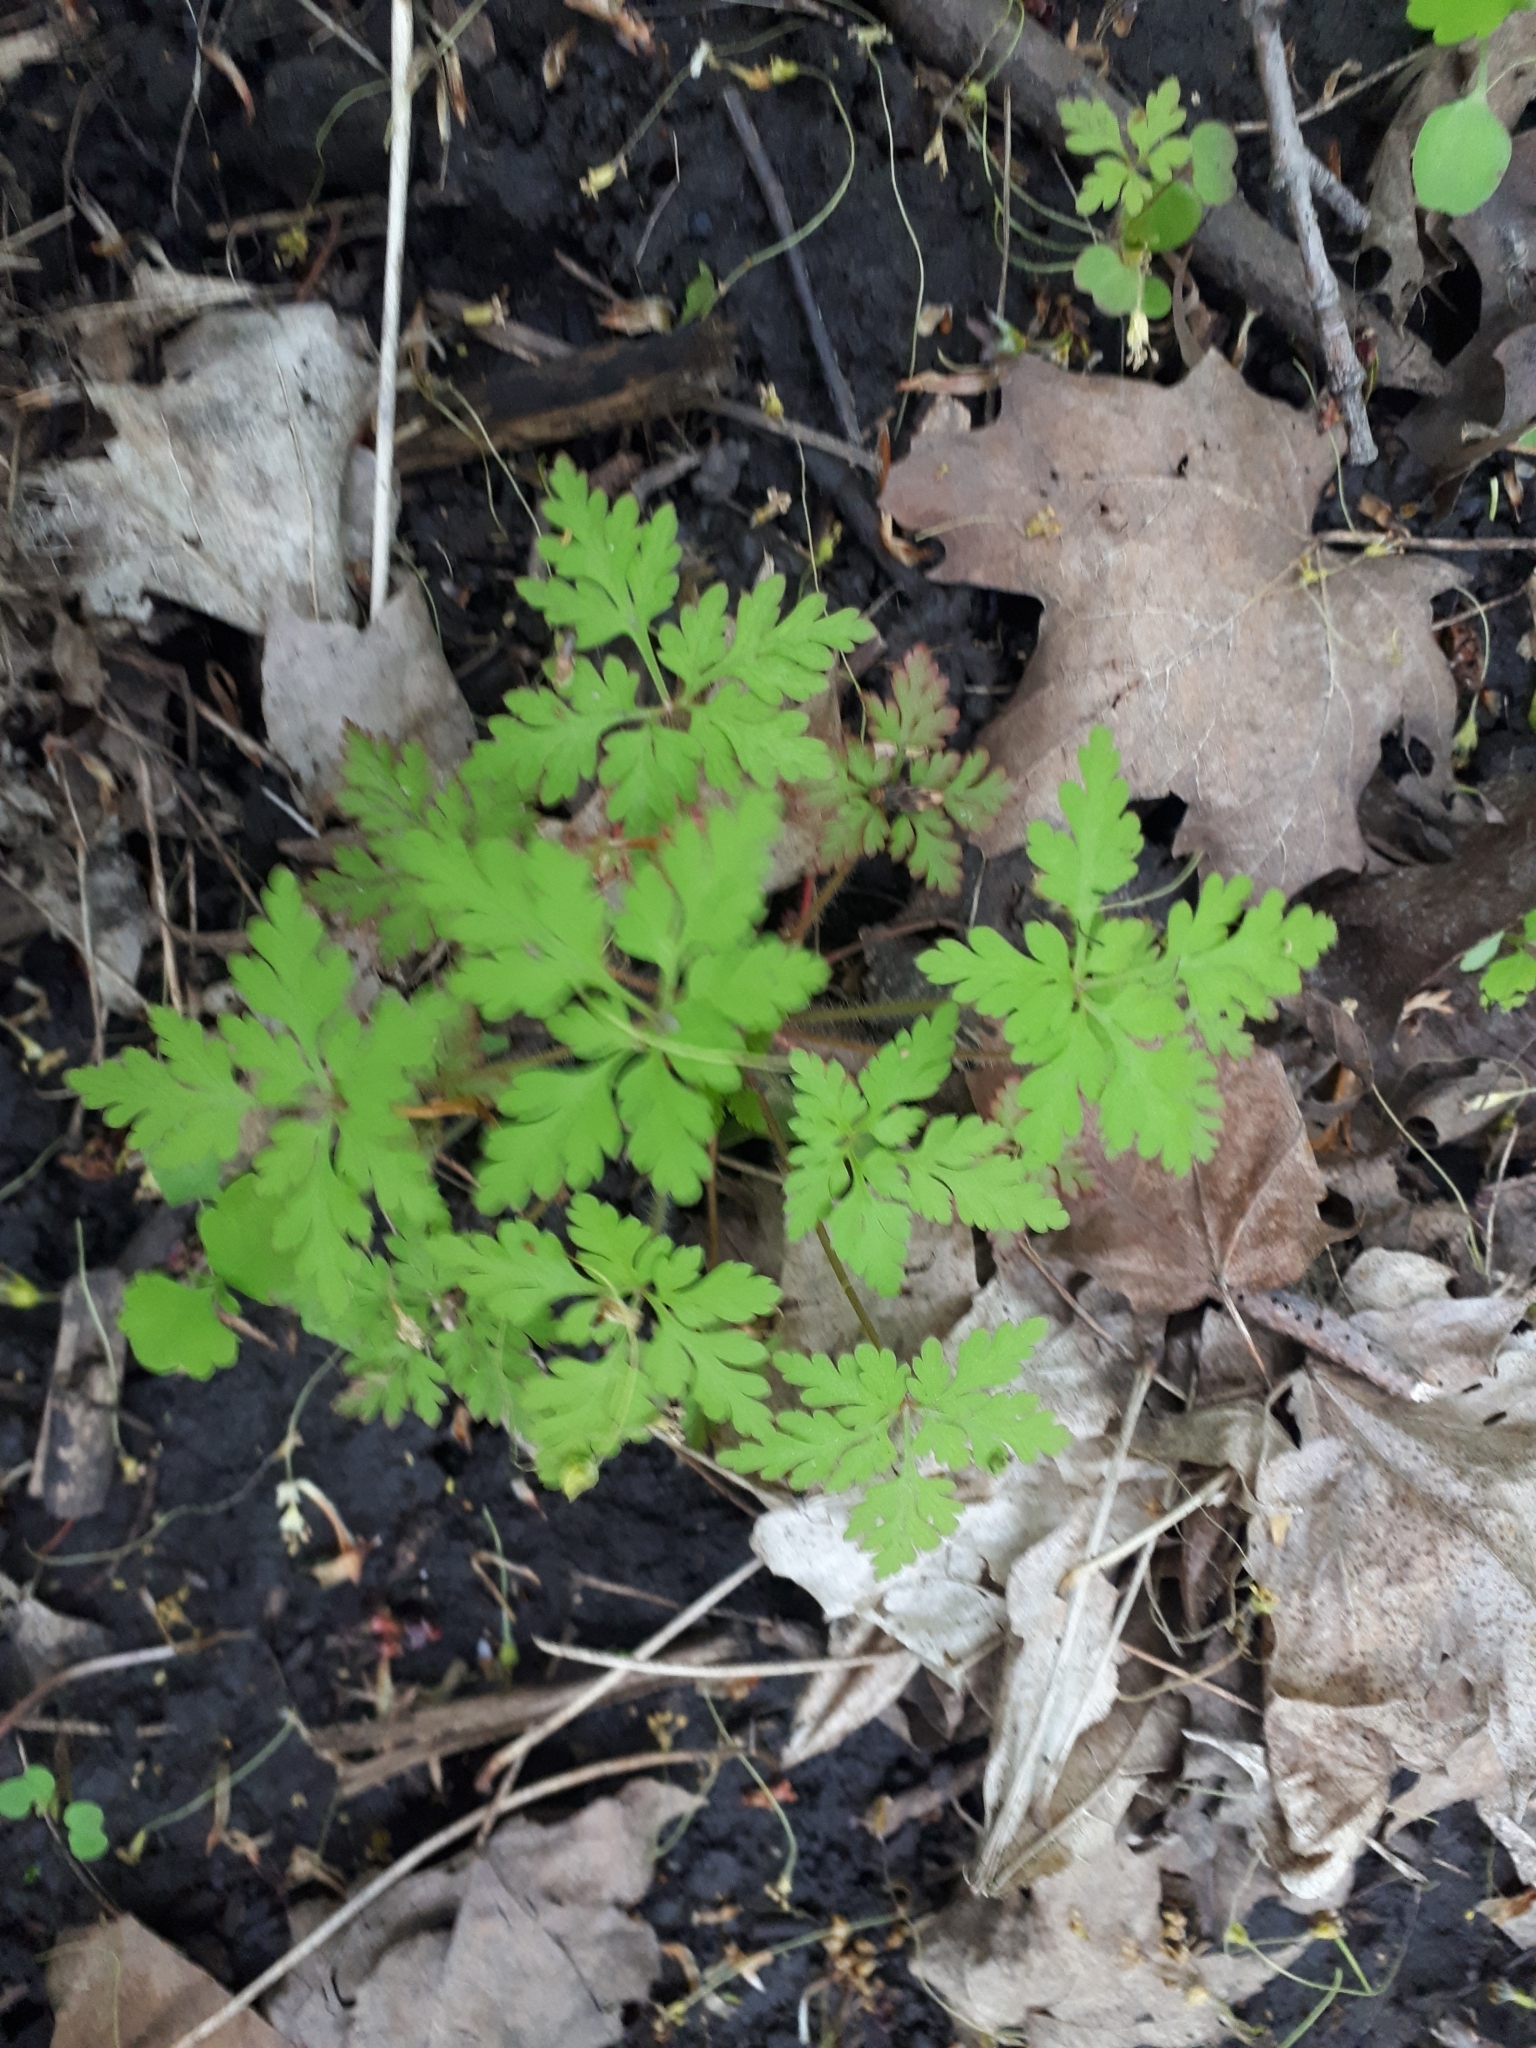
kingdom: Plantae
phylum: Tracheophyta
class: Magnoliopsida
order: Geraniales
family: Geraniaceae
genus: Geranium
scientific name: Geranium robertianum
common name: Herb-robert
